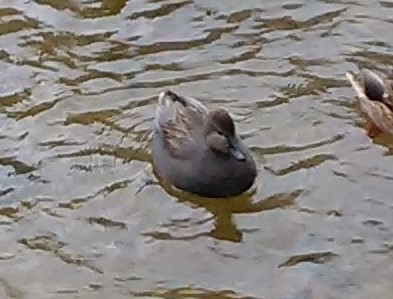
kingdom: Animalia
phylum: Chordata
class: Aves
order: Anseriformes
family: Anatidae
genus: Mareca
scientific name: Mareca strepera
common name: Gadwall
